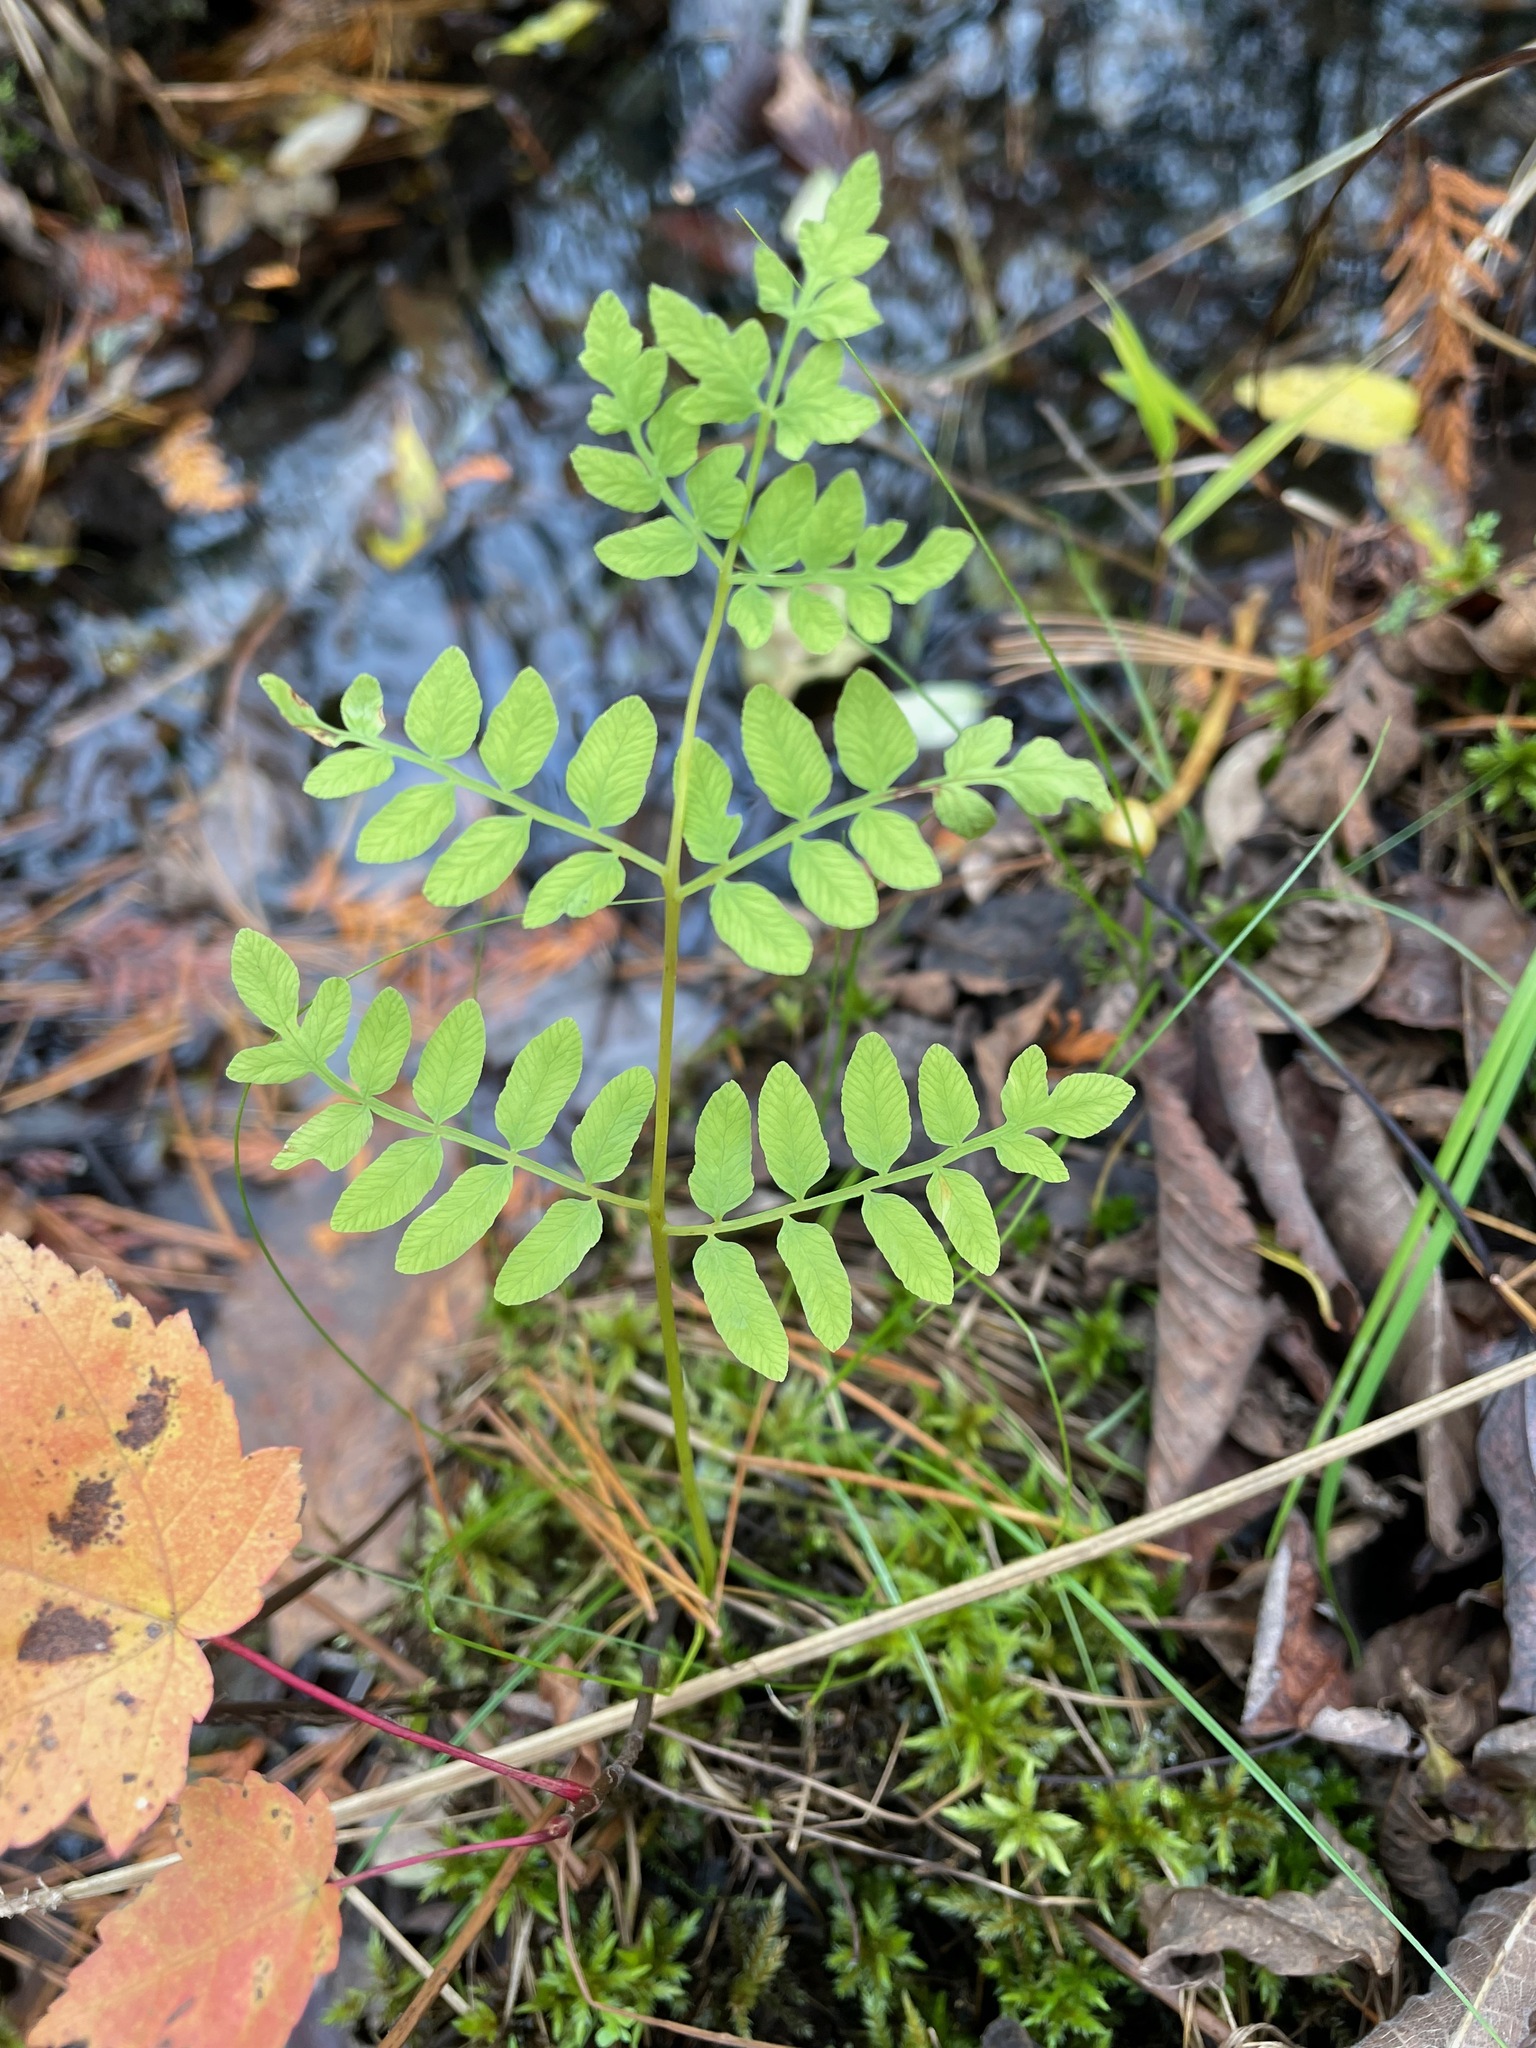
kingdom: Plantae
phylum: Tracheophyta
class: Polypodiopsida
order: Osmundales
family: Osmundaceae
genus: Osmunda
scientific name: Osmunda spectabilis
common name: American royal fern
